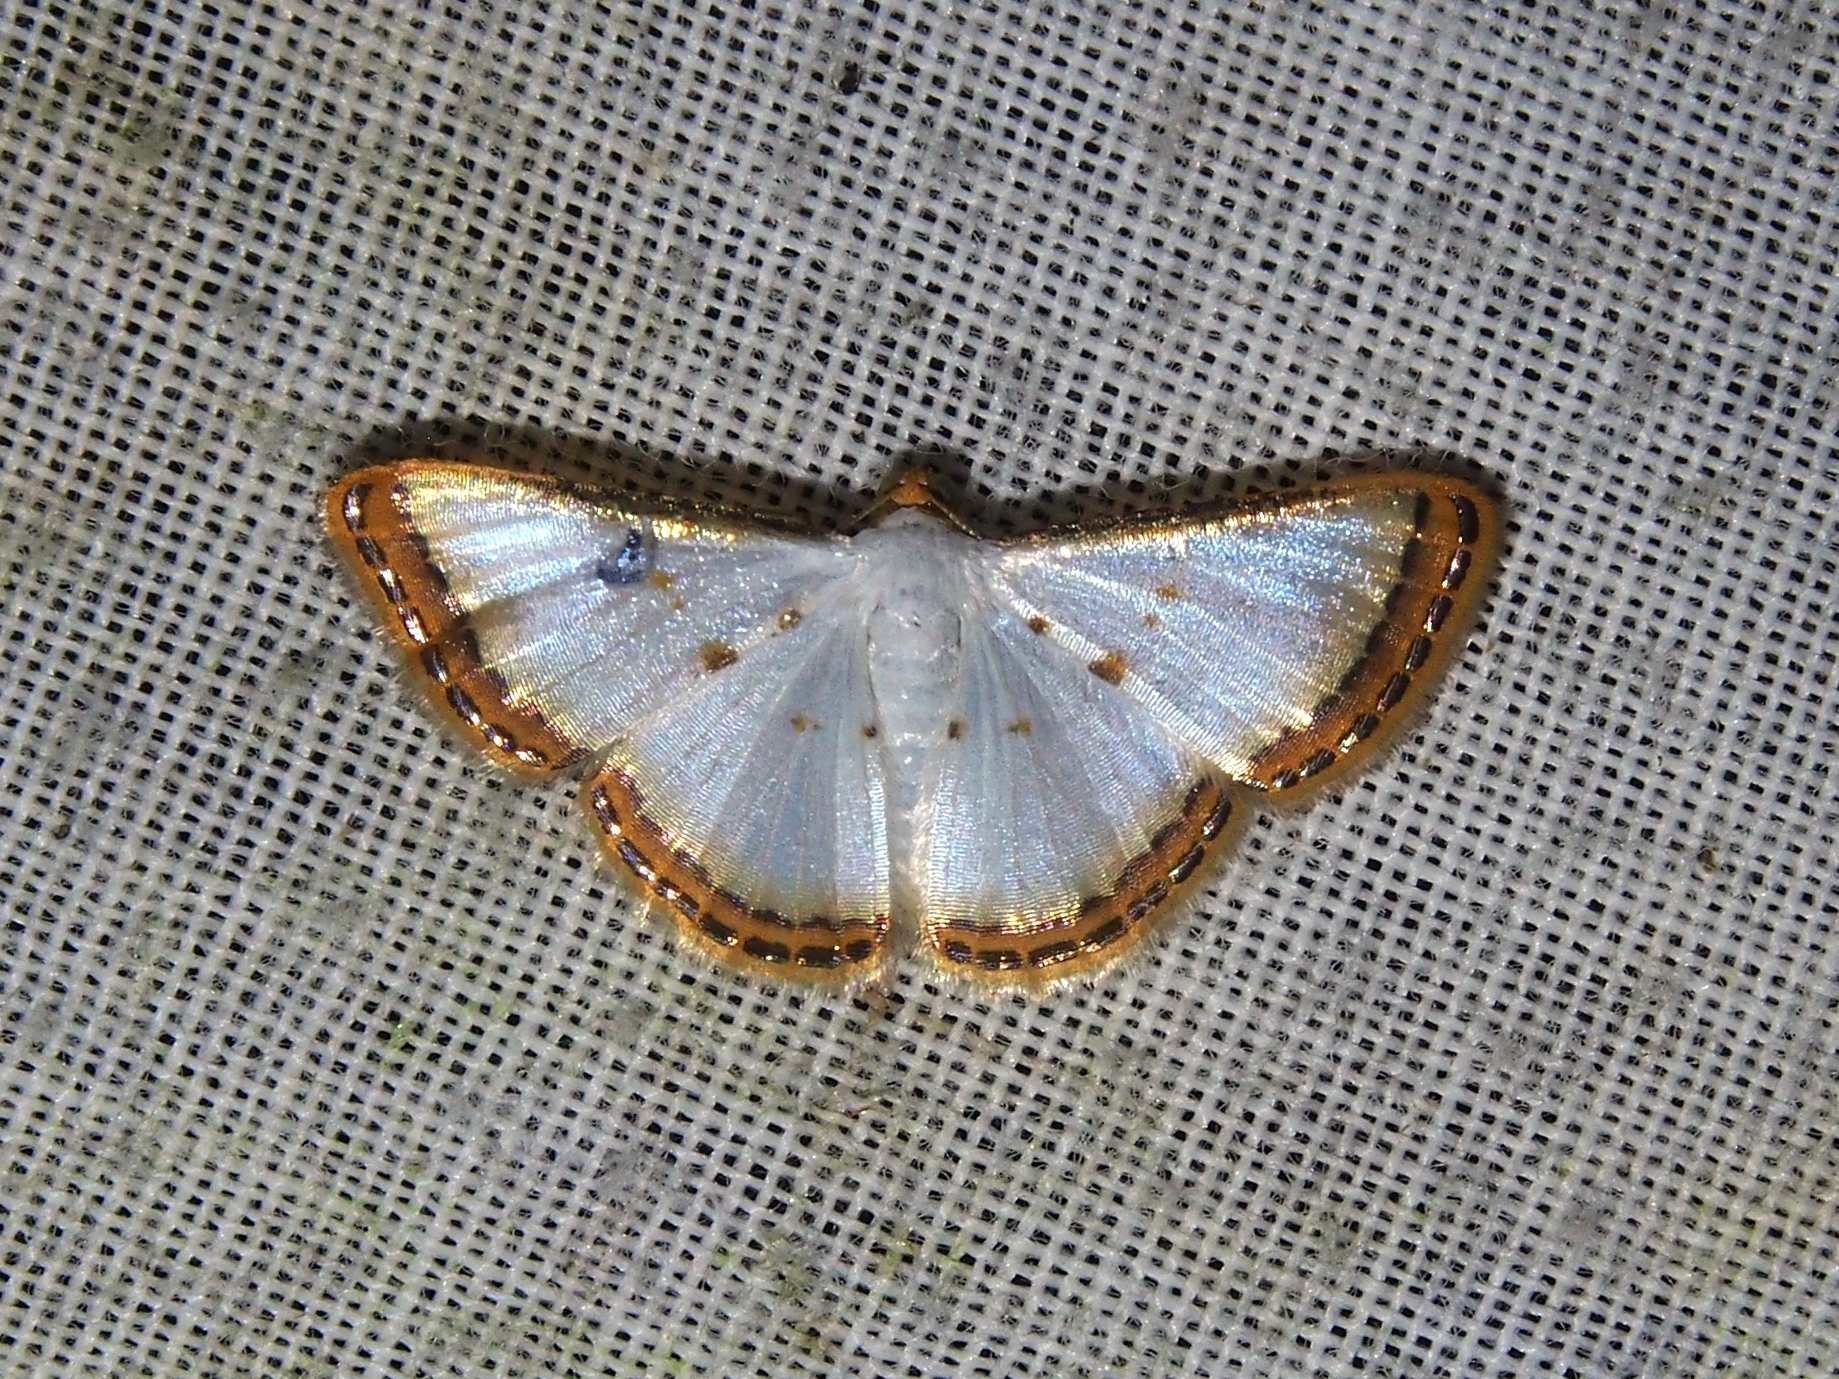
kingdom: Animalia
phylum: Arthropoda
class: Insecta
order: Lepidoptera
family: Geometridae
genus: Leuciris
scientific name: Leuciris institata
